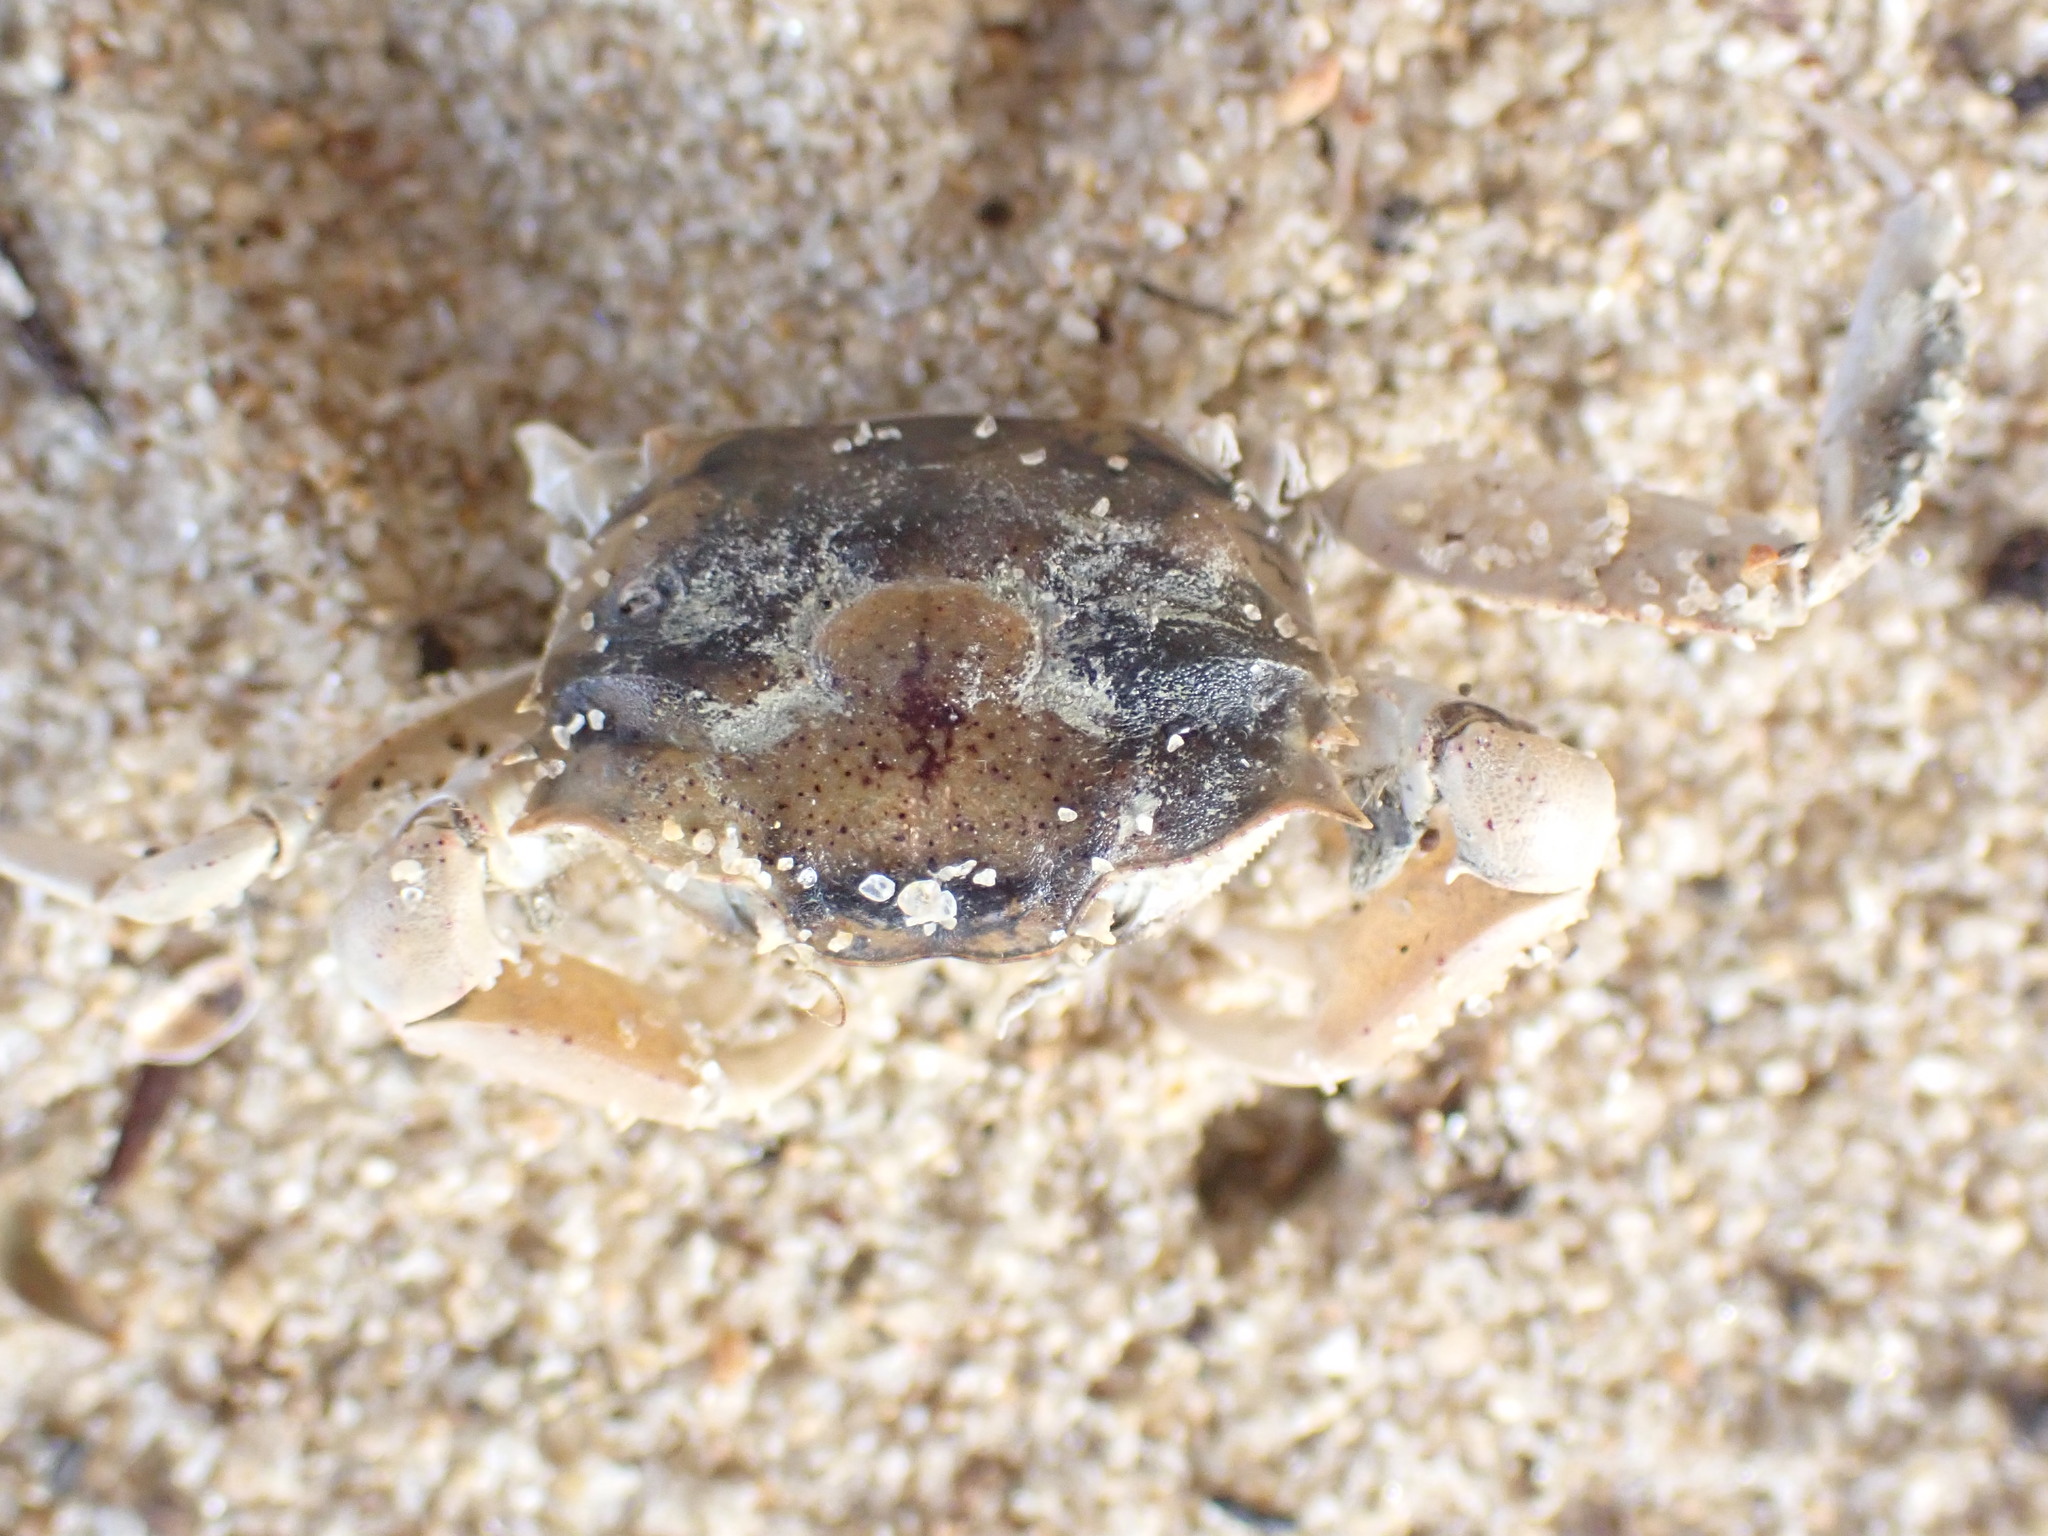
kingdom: Animalia
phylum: Arthropoda
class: Malacostraca
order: Decapoda
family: Macrophthalmidae
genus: Hemiplax
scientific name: Hemiplax hirtipes
